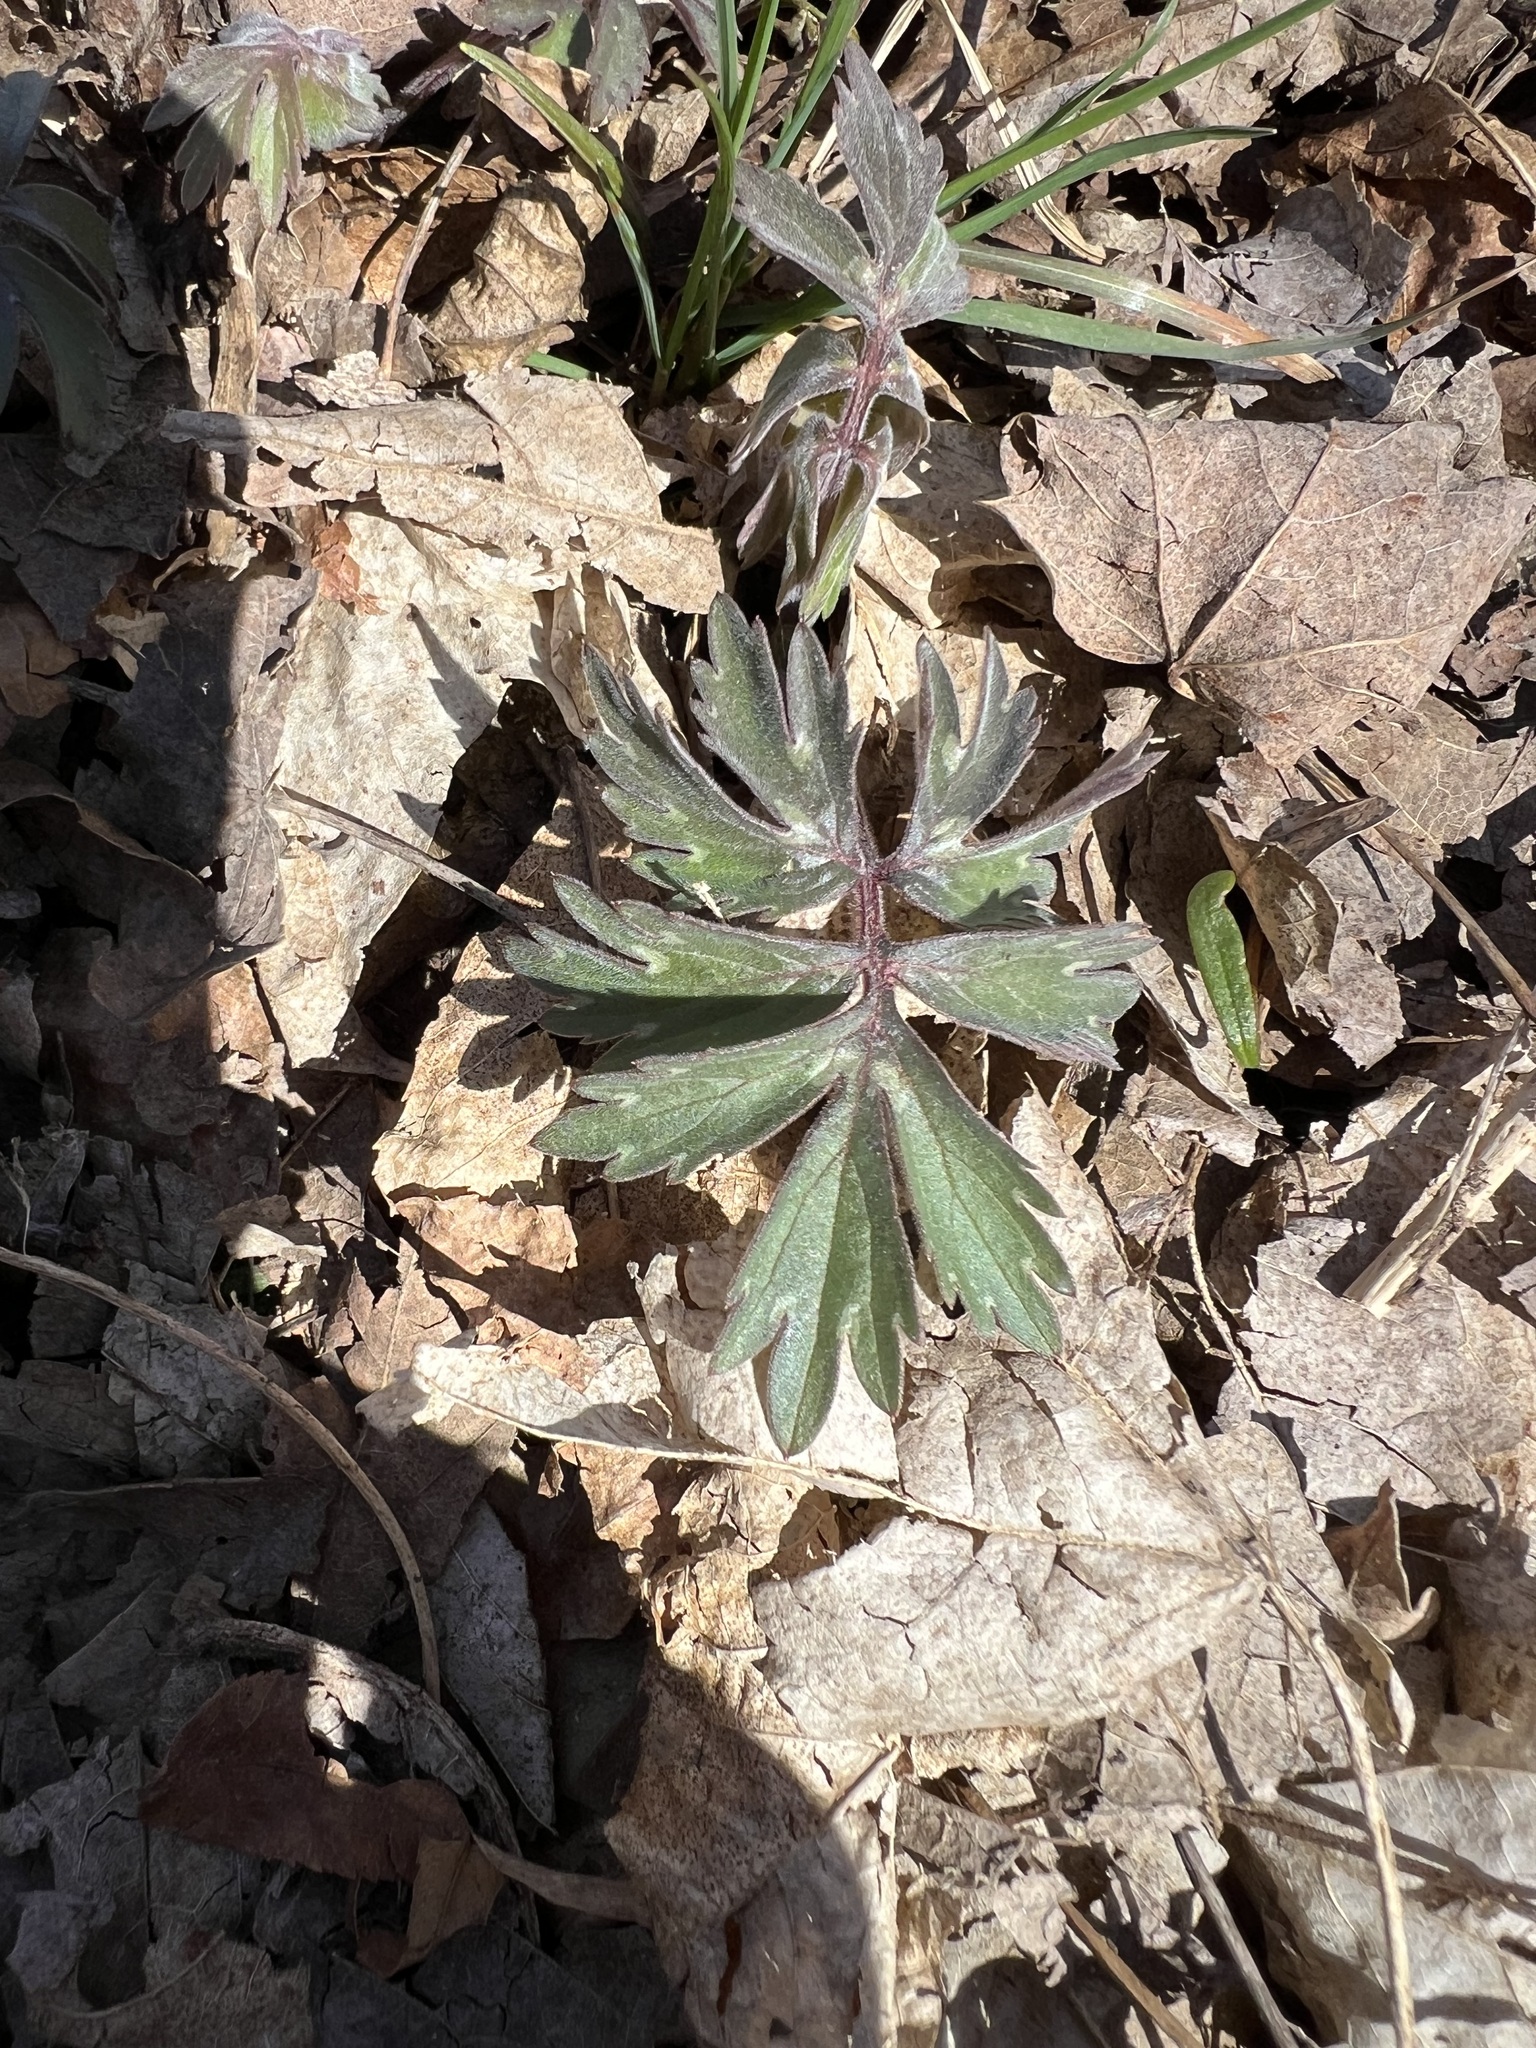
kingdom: Plantae
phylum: Tracheophyta
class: Magnoliopsida
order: Boraginales
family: Hydrophyllaceae
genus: Hydrophyllum
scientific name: Hydrophyllum virginianum
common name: Virginia waterleaf
